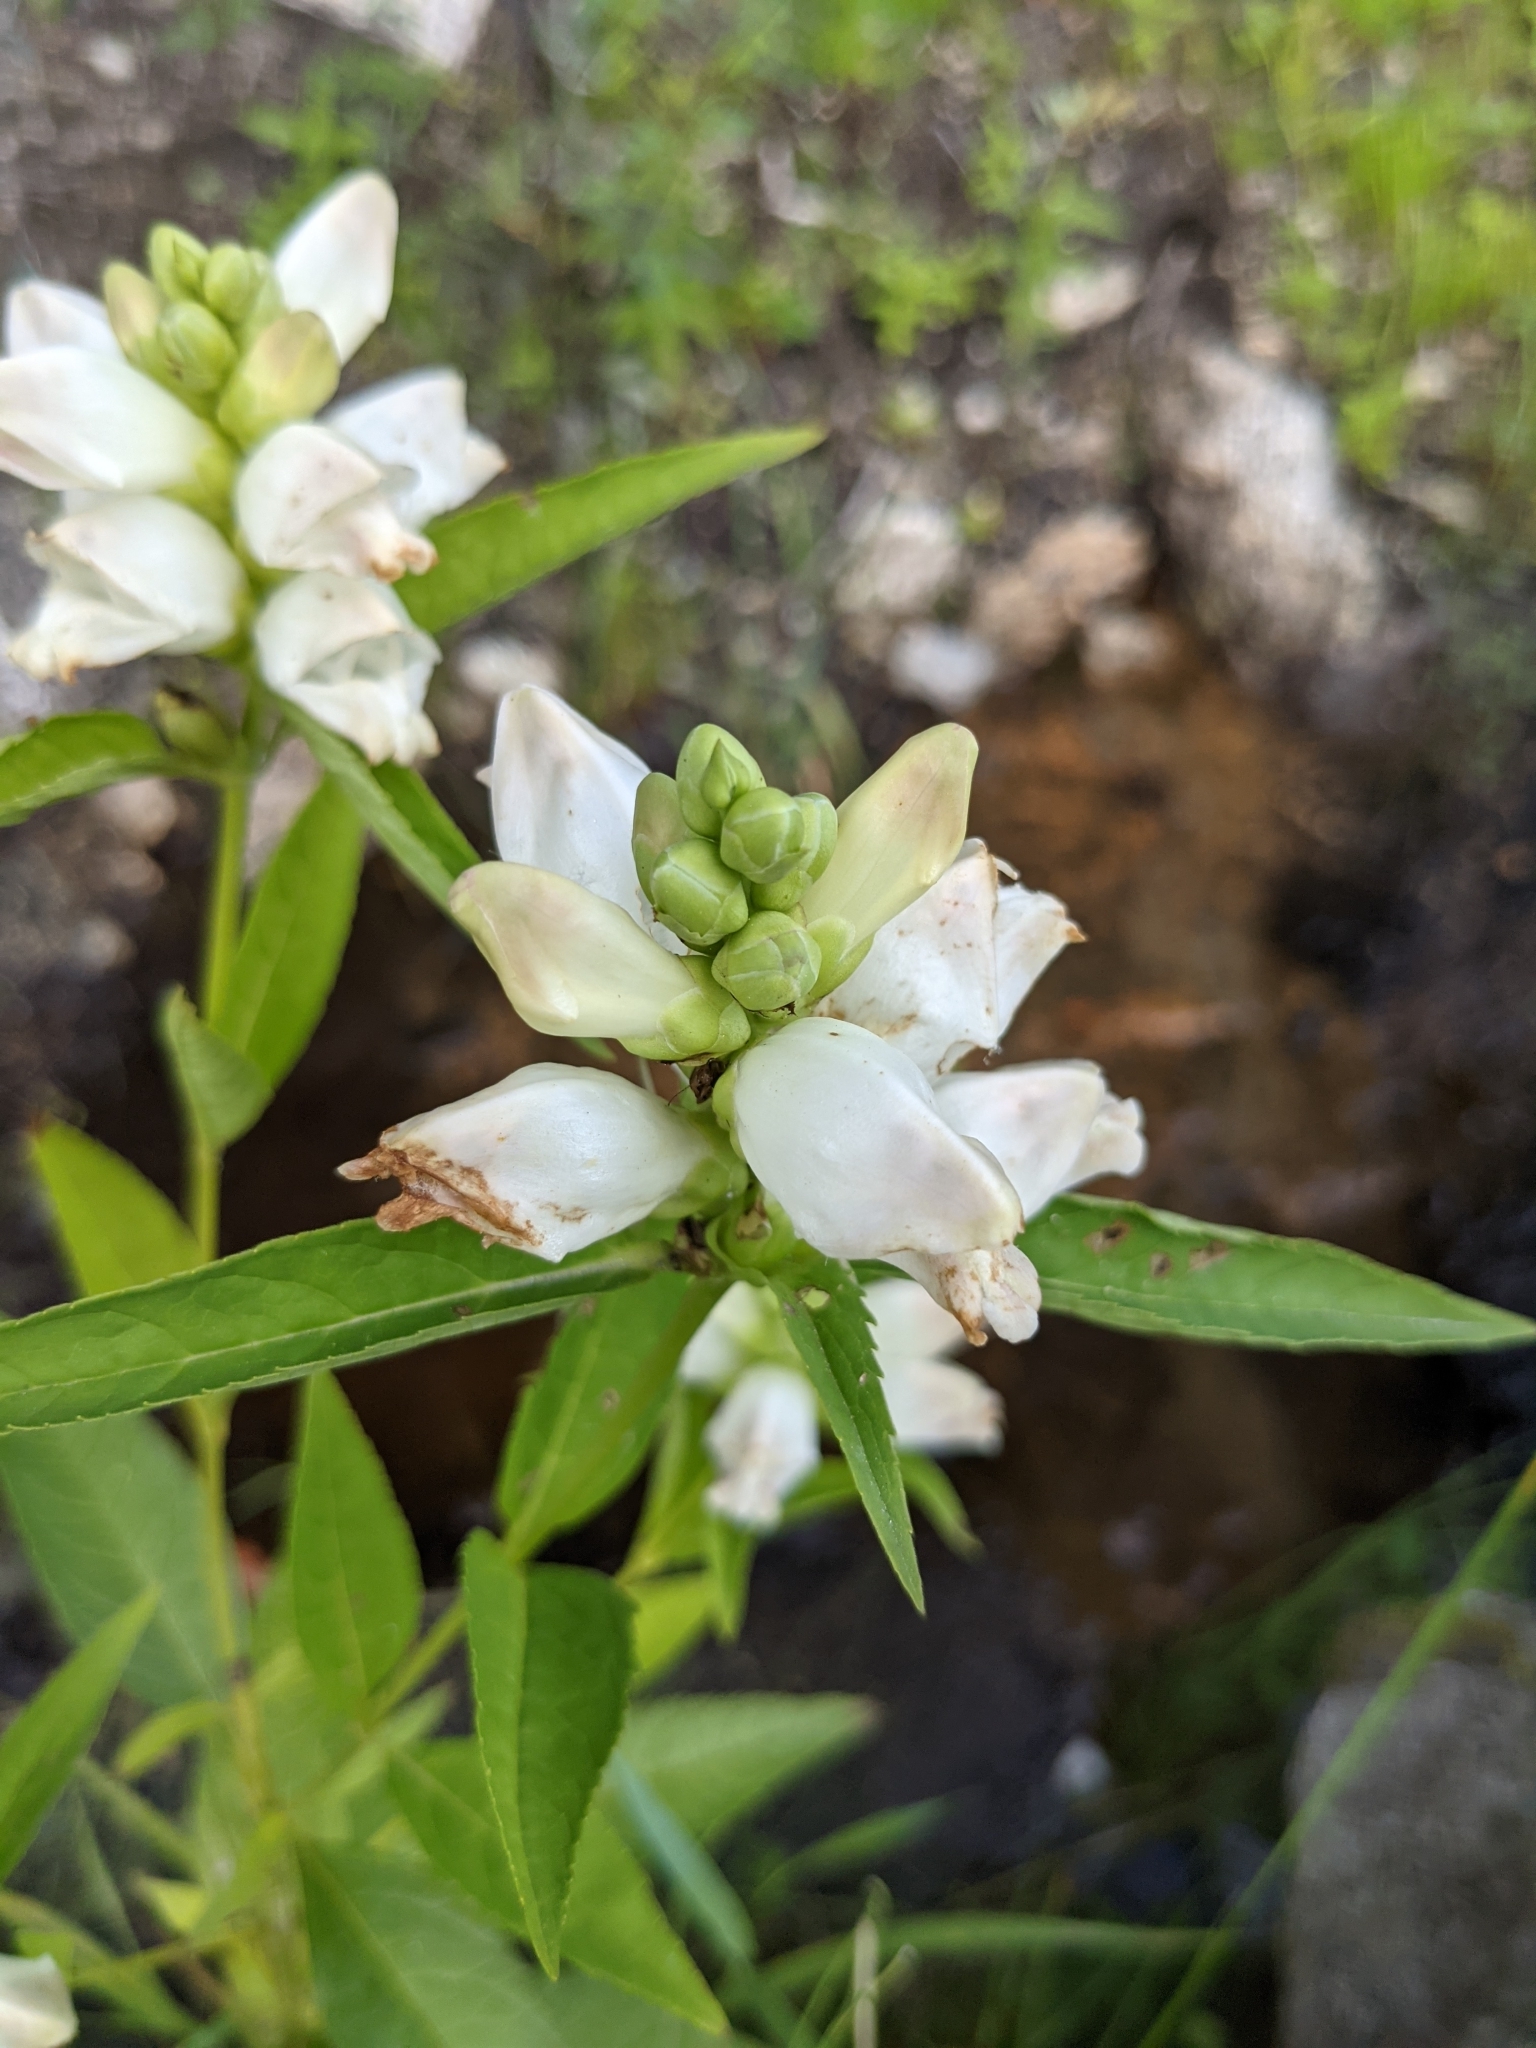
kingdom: Plantae
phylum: Tracheophyta
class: Magnoliopsida
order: Lamiales
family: Plantaginaceae
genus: Chelone
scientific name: Chelone glabra
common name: Snakehead
